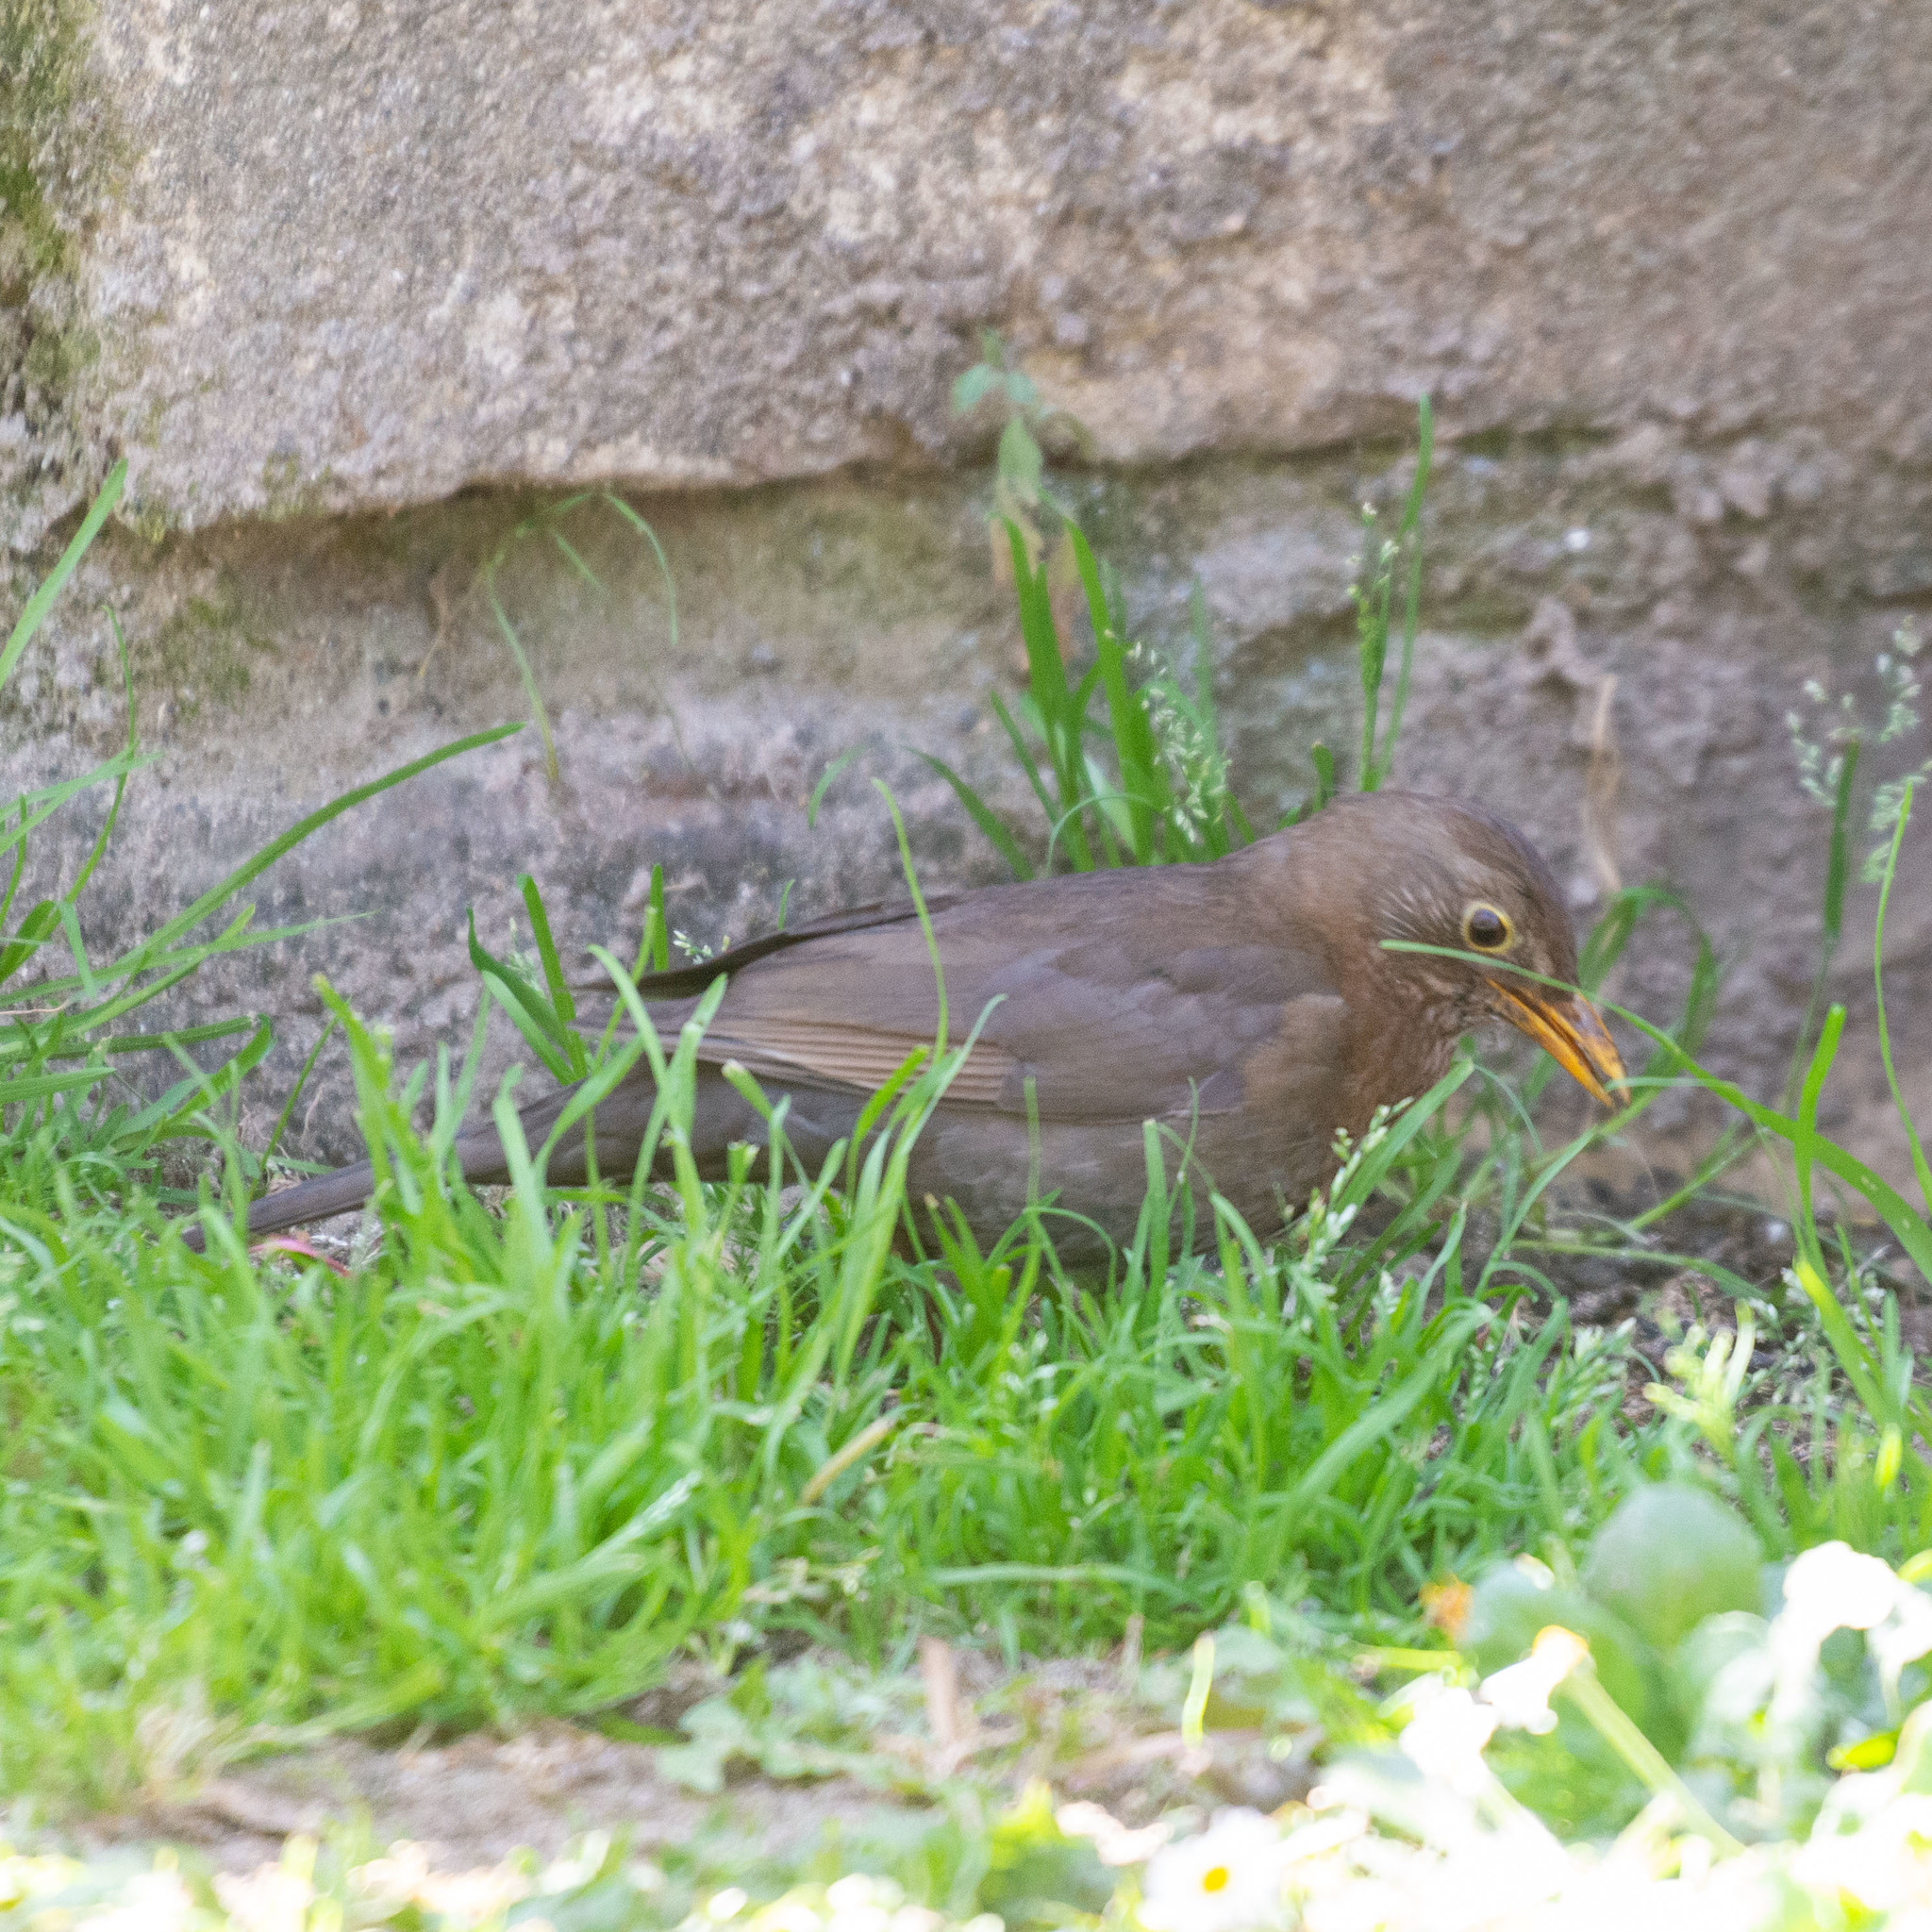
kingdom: Animalia
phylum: Chordata
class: Aves
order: Passeriformes
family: Turdidae
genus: Turdus
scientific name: Turdus merula
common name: Common blackbird
